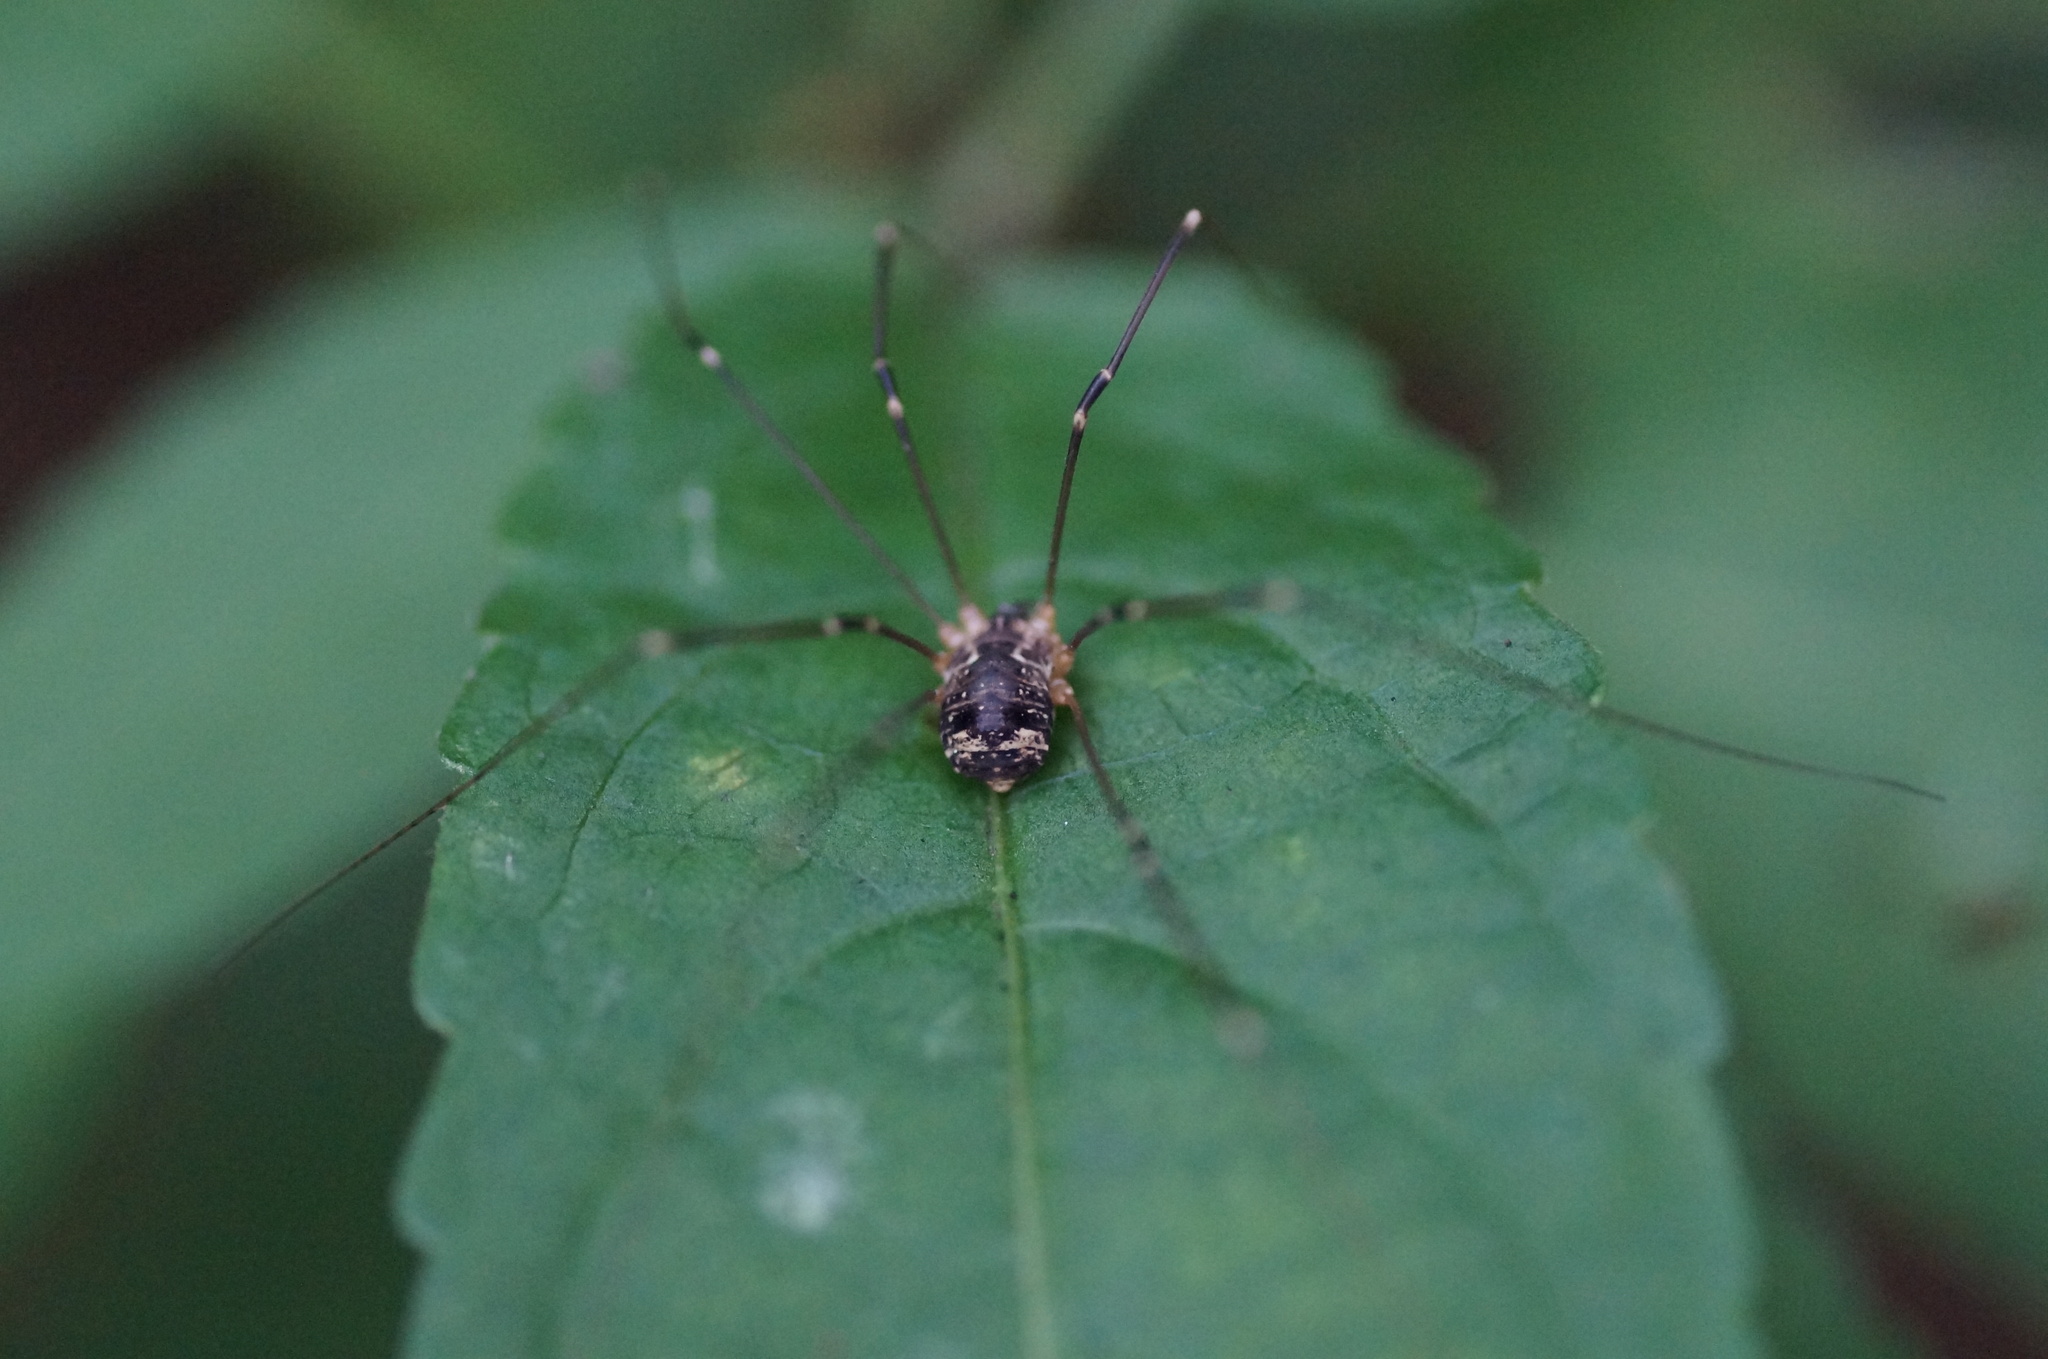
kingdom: Animalia
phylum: Arthropoda
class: Arachnida
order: Opiliones
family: Sclerosomatidae
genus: Leiobunum
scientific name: Leiobunum gracile
